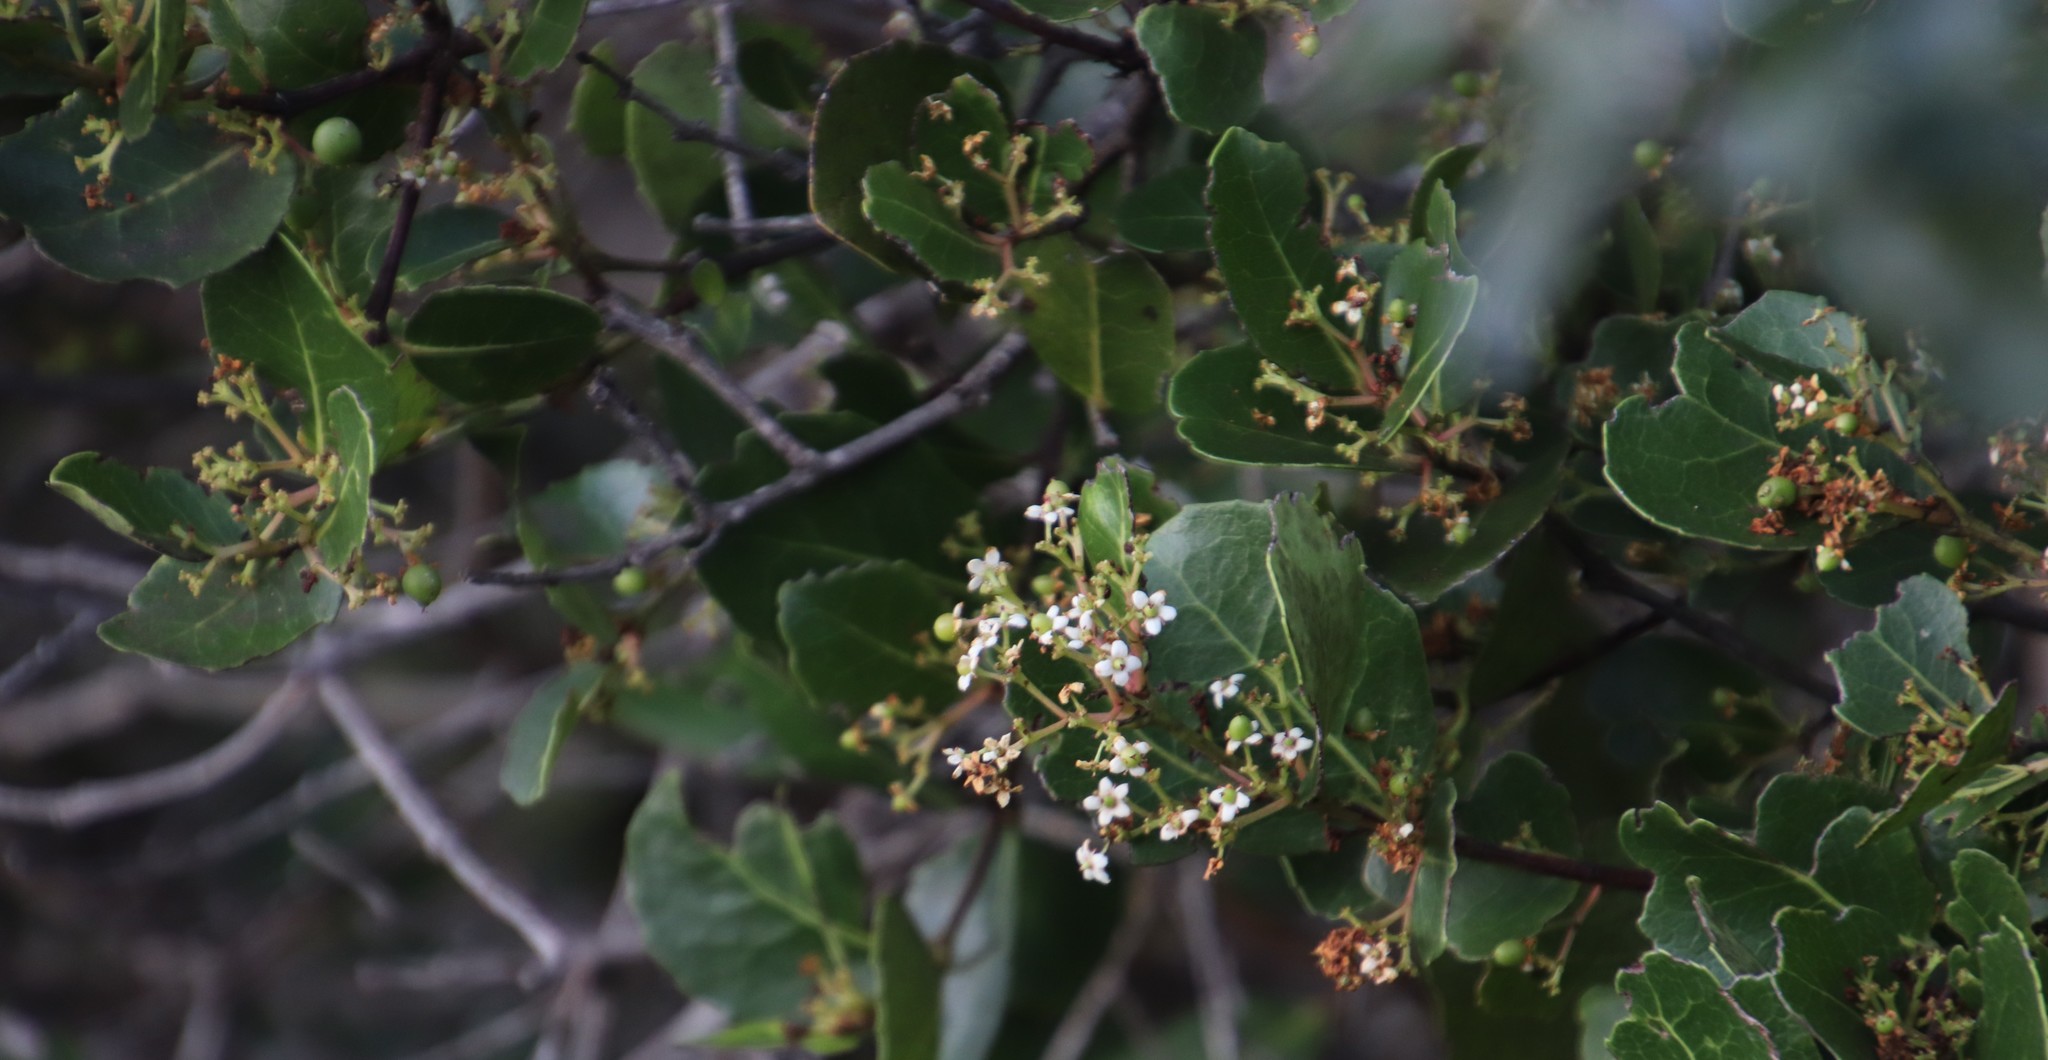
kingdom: Plantae
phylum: Tracheophyta
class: Magnoliopsida
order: Celastrales
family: Celastraceae
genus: Cassine
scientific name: Cassine peragua
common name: Cape saffron
